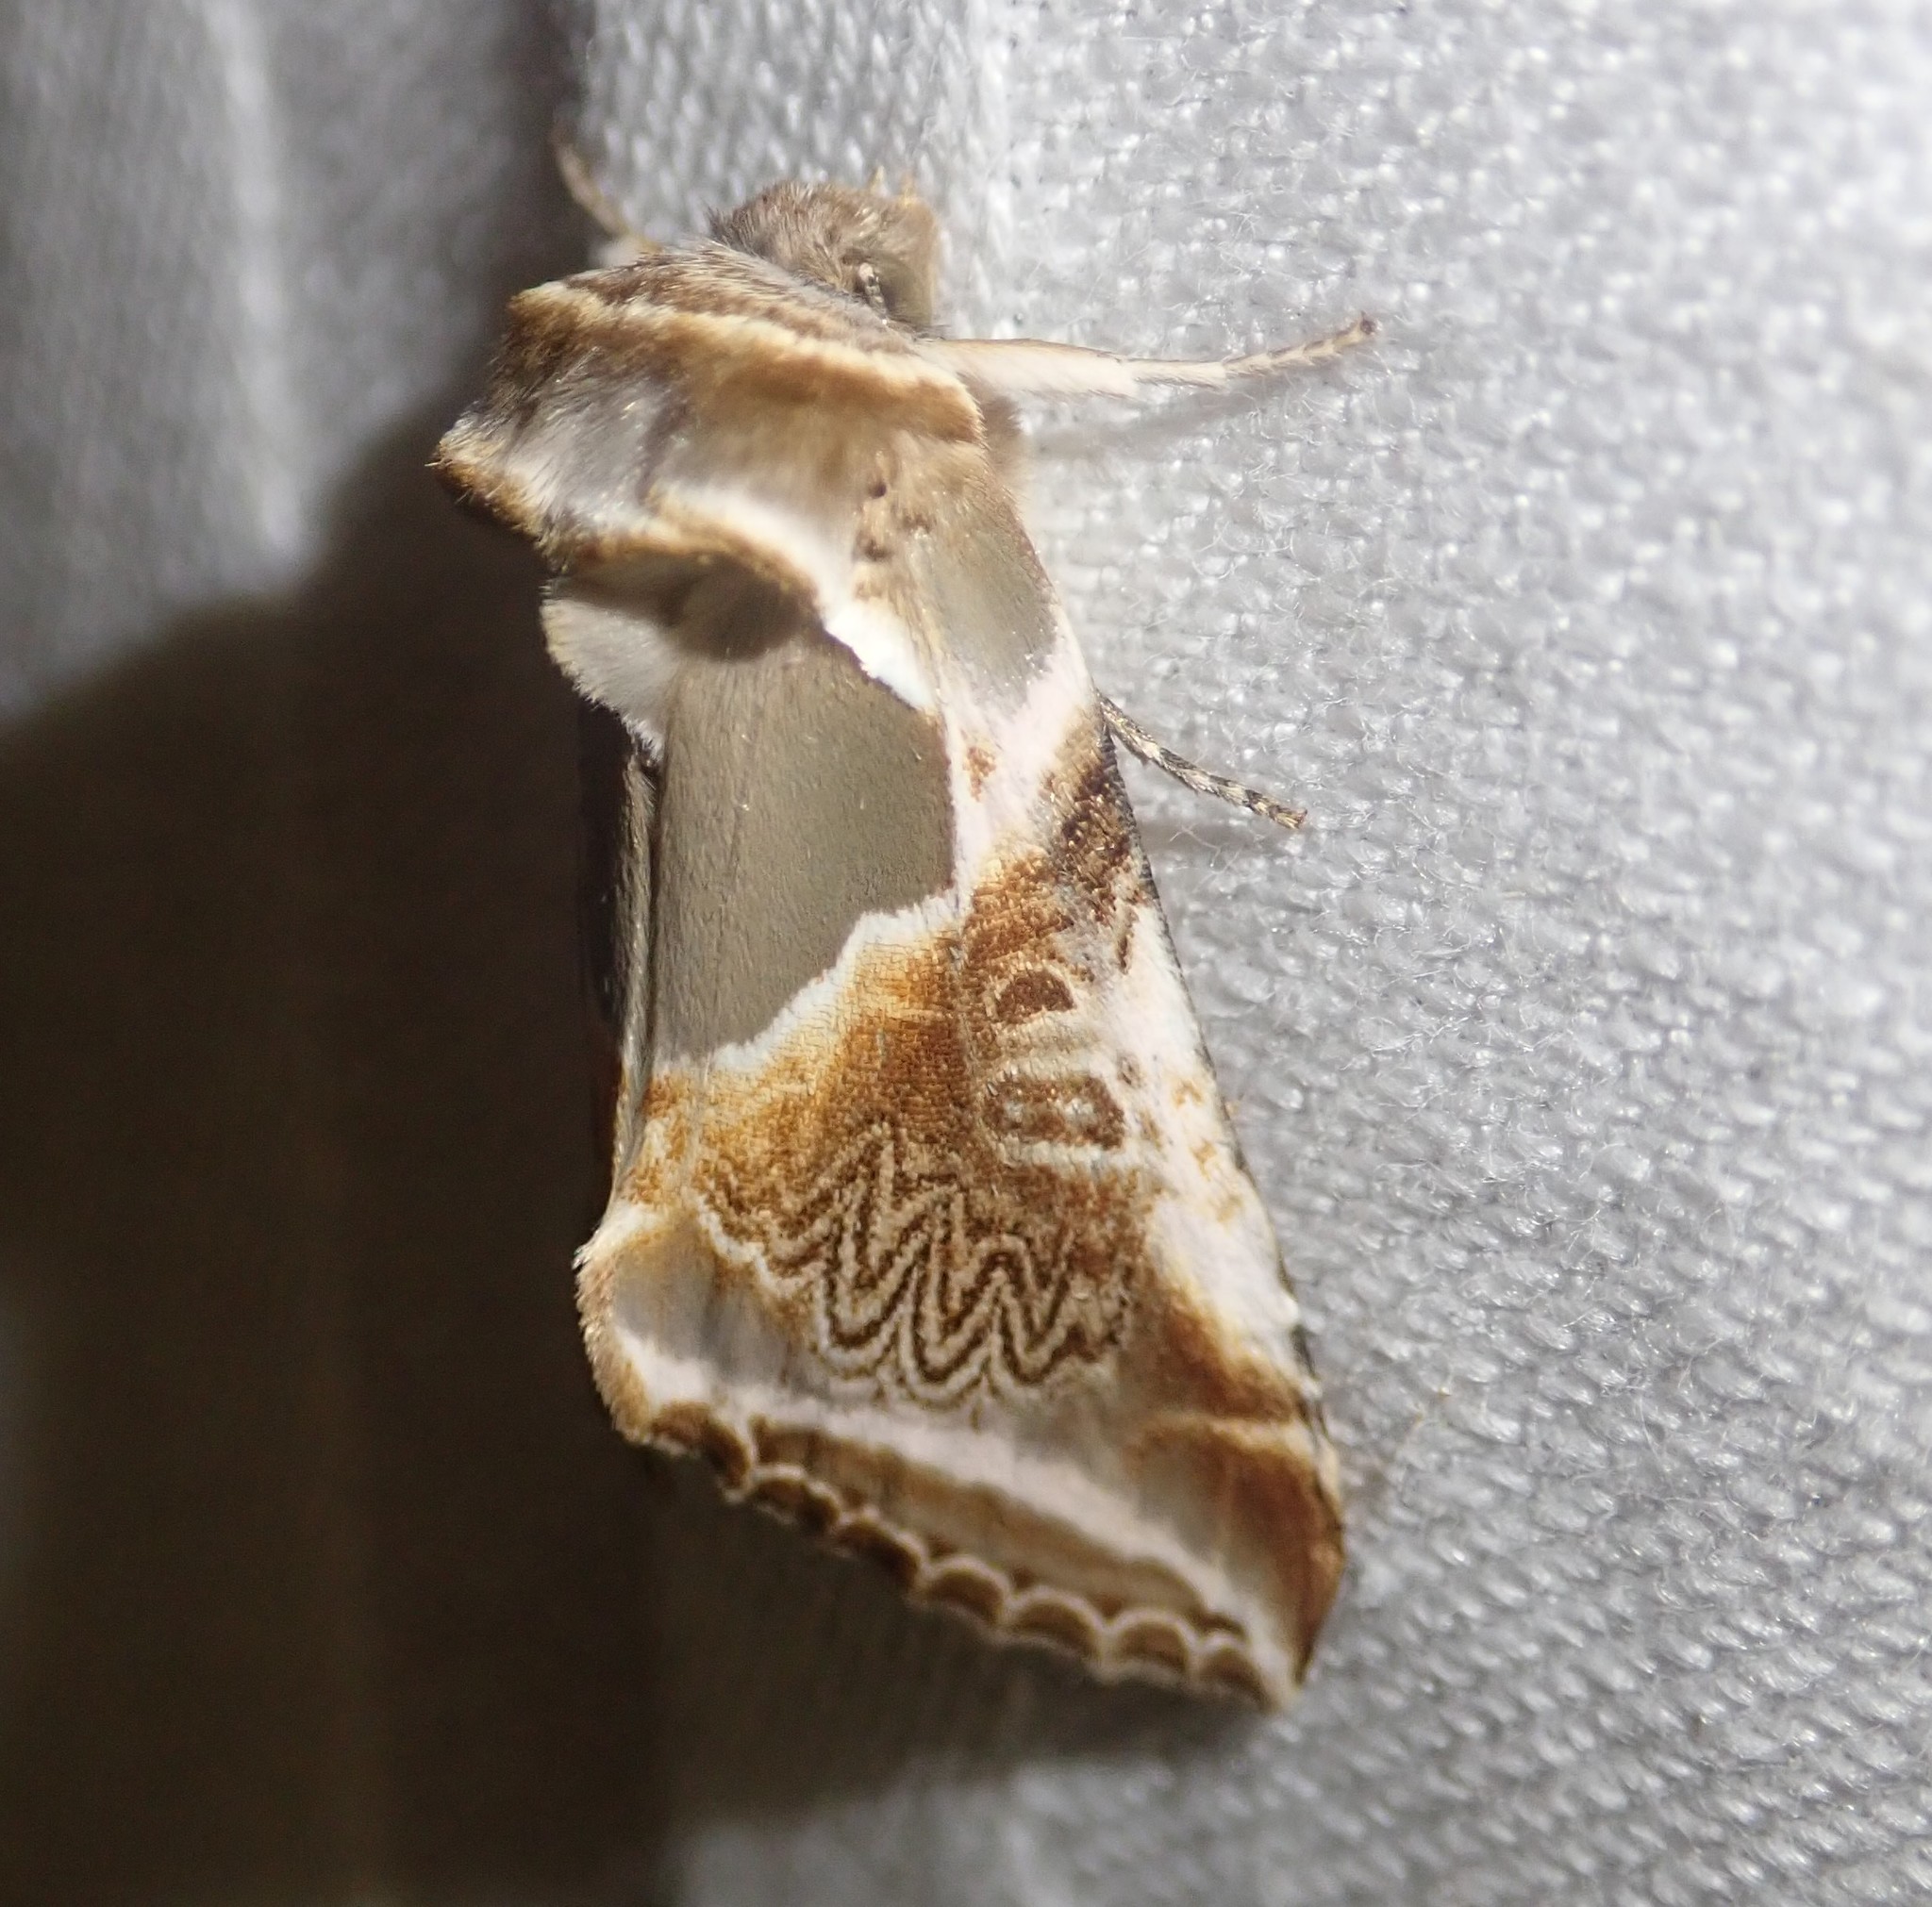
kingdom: Animalia
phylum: Arthropoda
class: Insecta
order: Lepidoptera
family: Drepanidae
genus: Habrosyne
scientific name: Habrosyne pyritoides
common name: Buff arches
